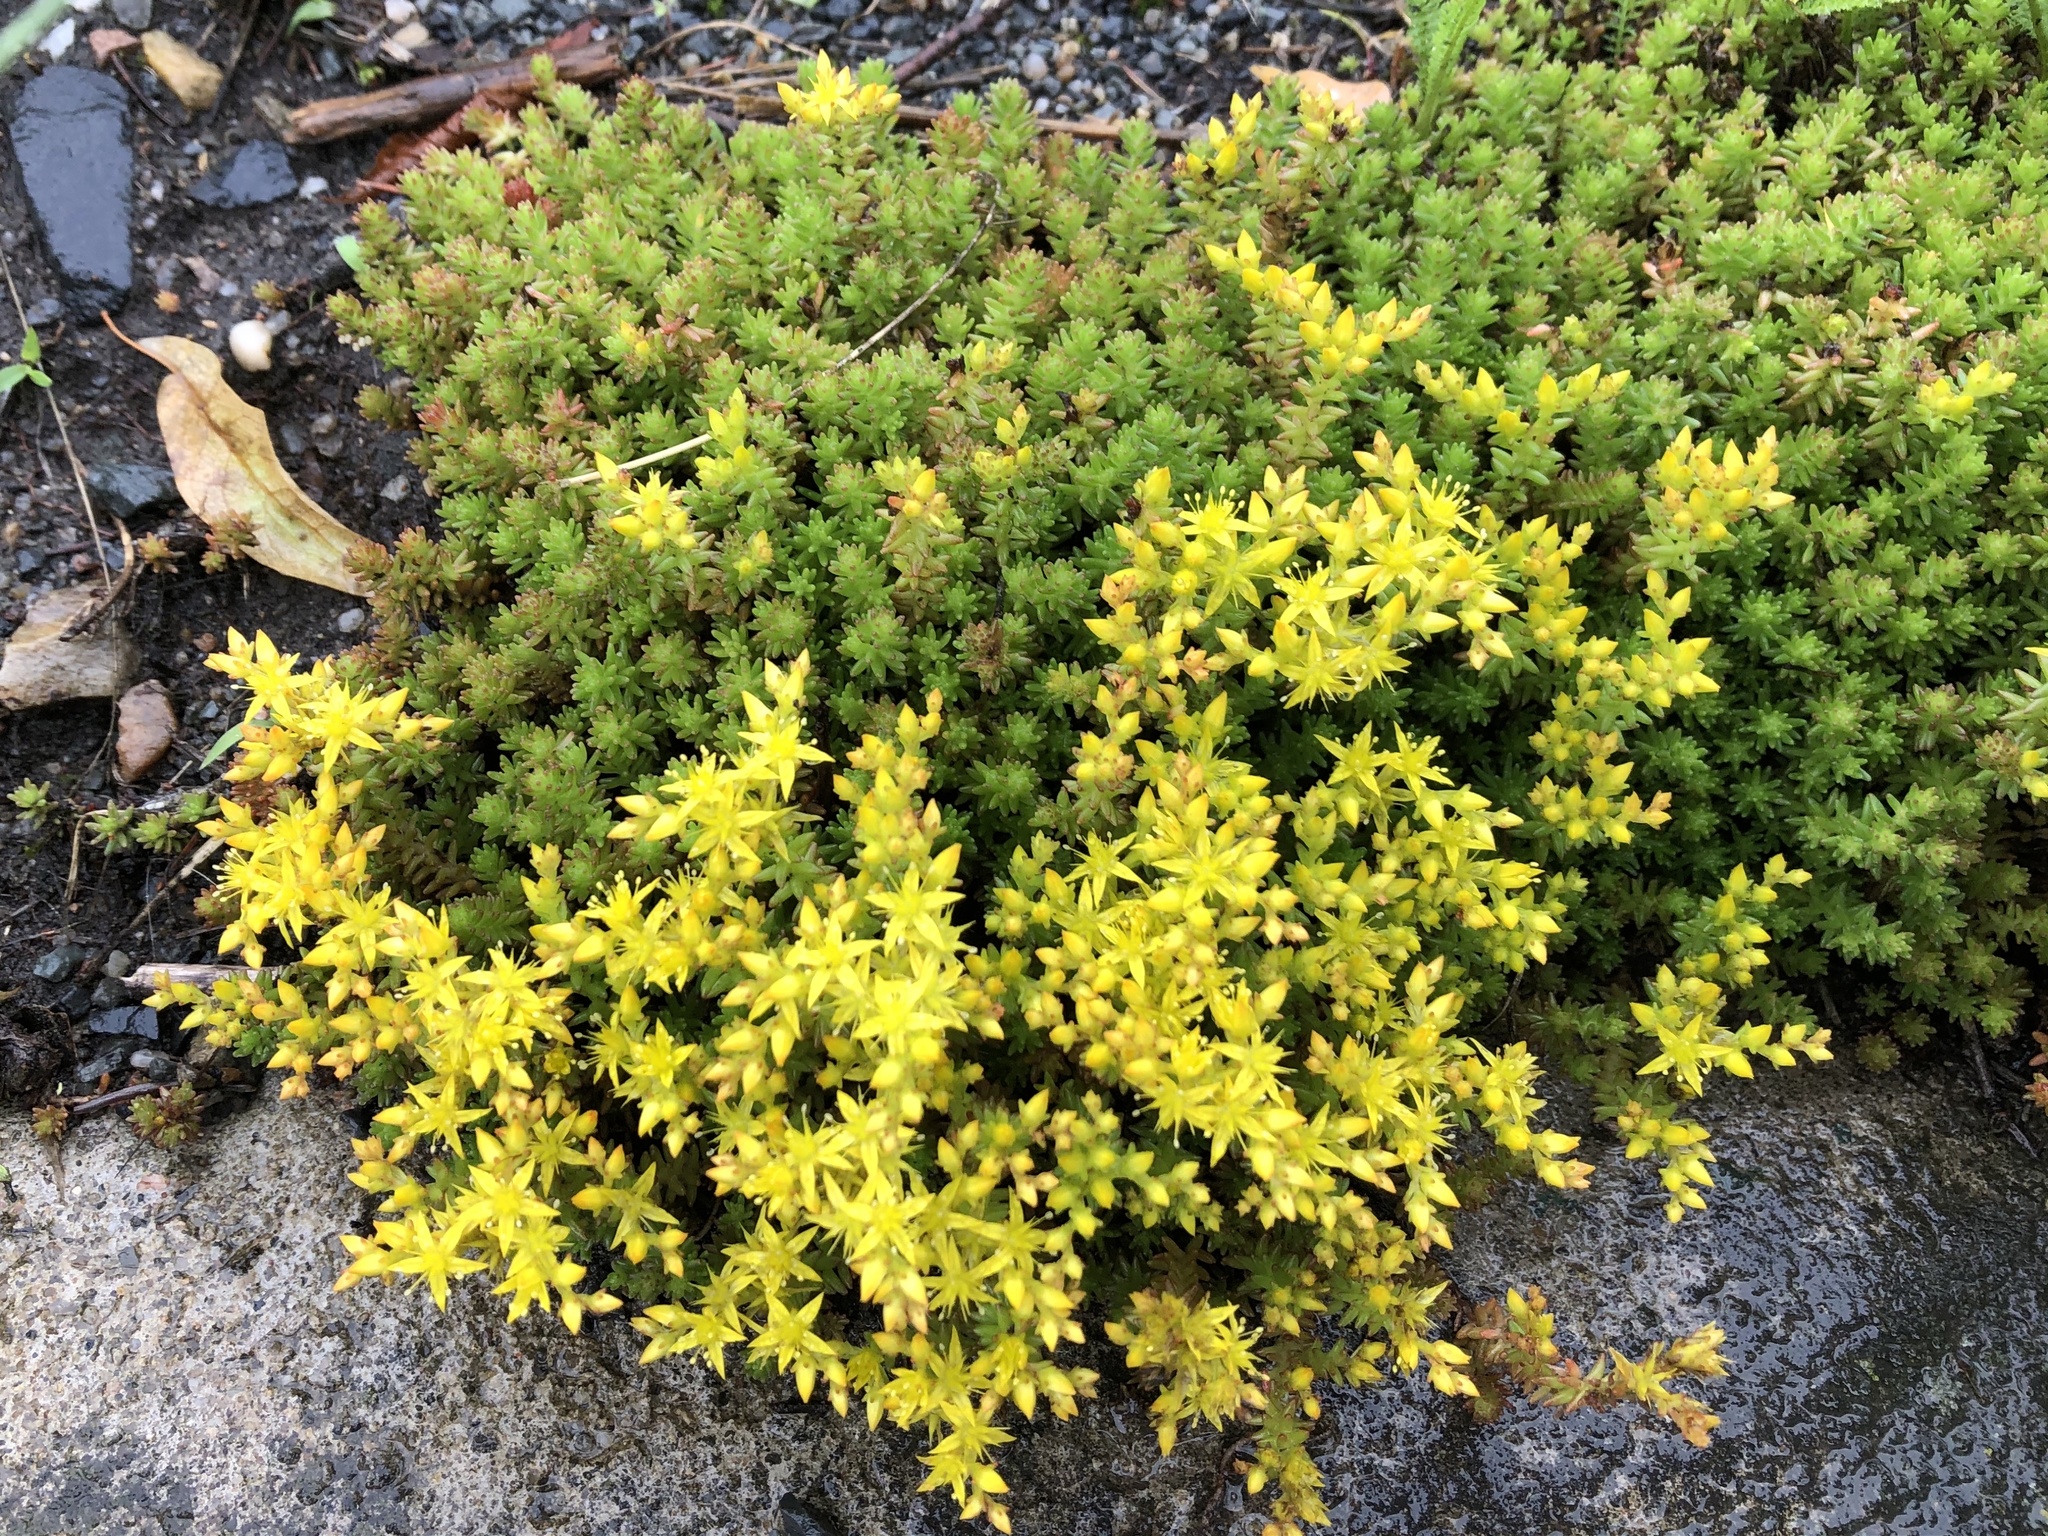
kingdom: Plantae
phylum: Tracheophyta
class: Magnoliopsida
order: Saxifragales
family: Crassulaceae
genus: Sedum
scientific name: Sedum sexangulare
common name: Tasteless stonecrop
